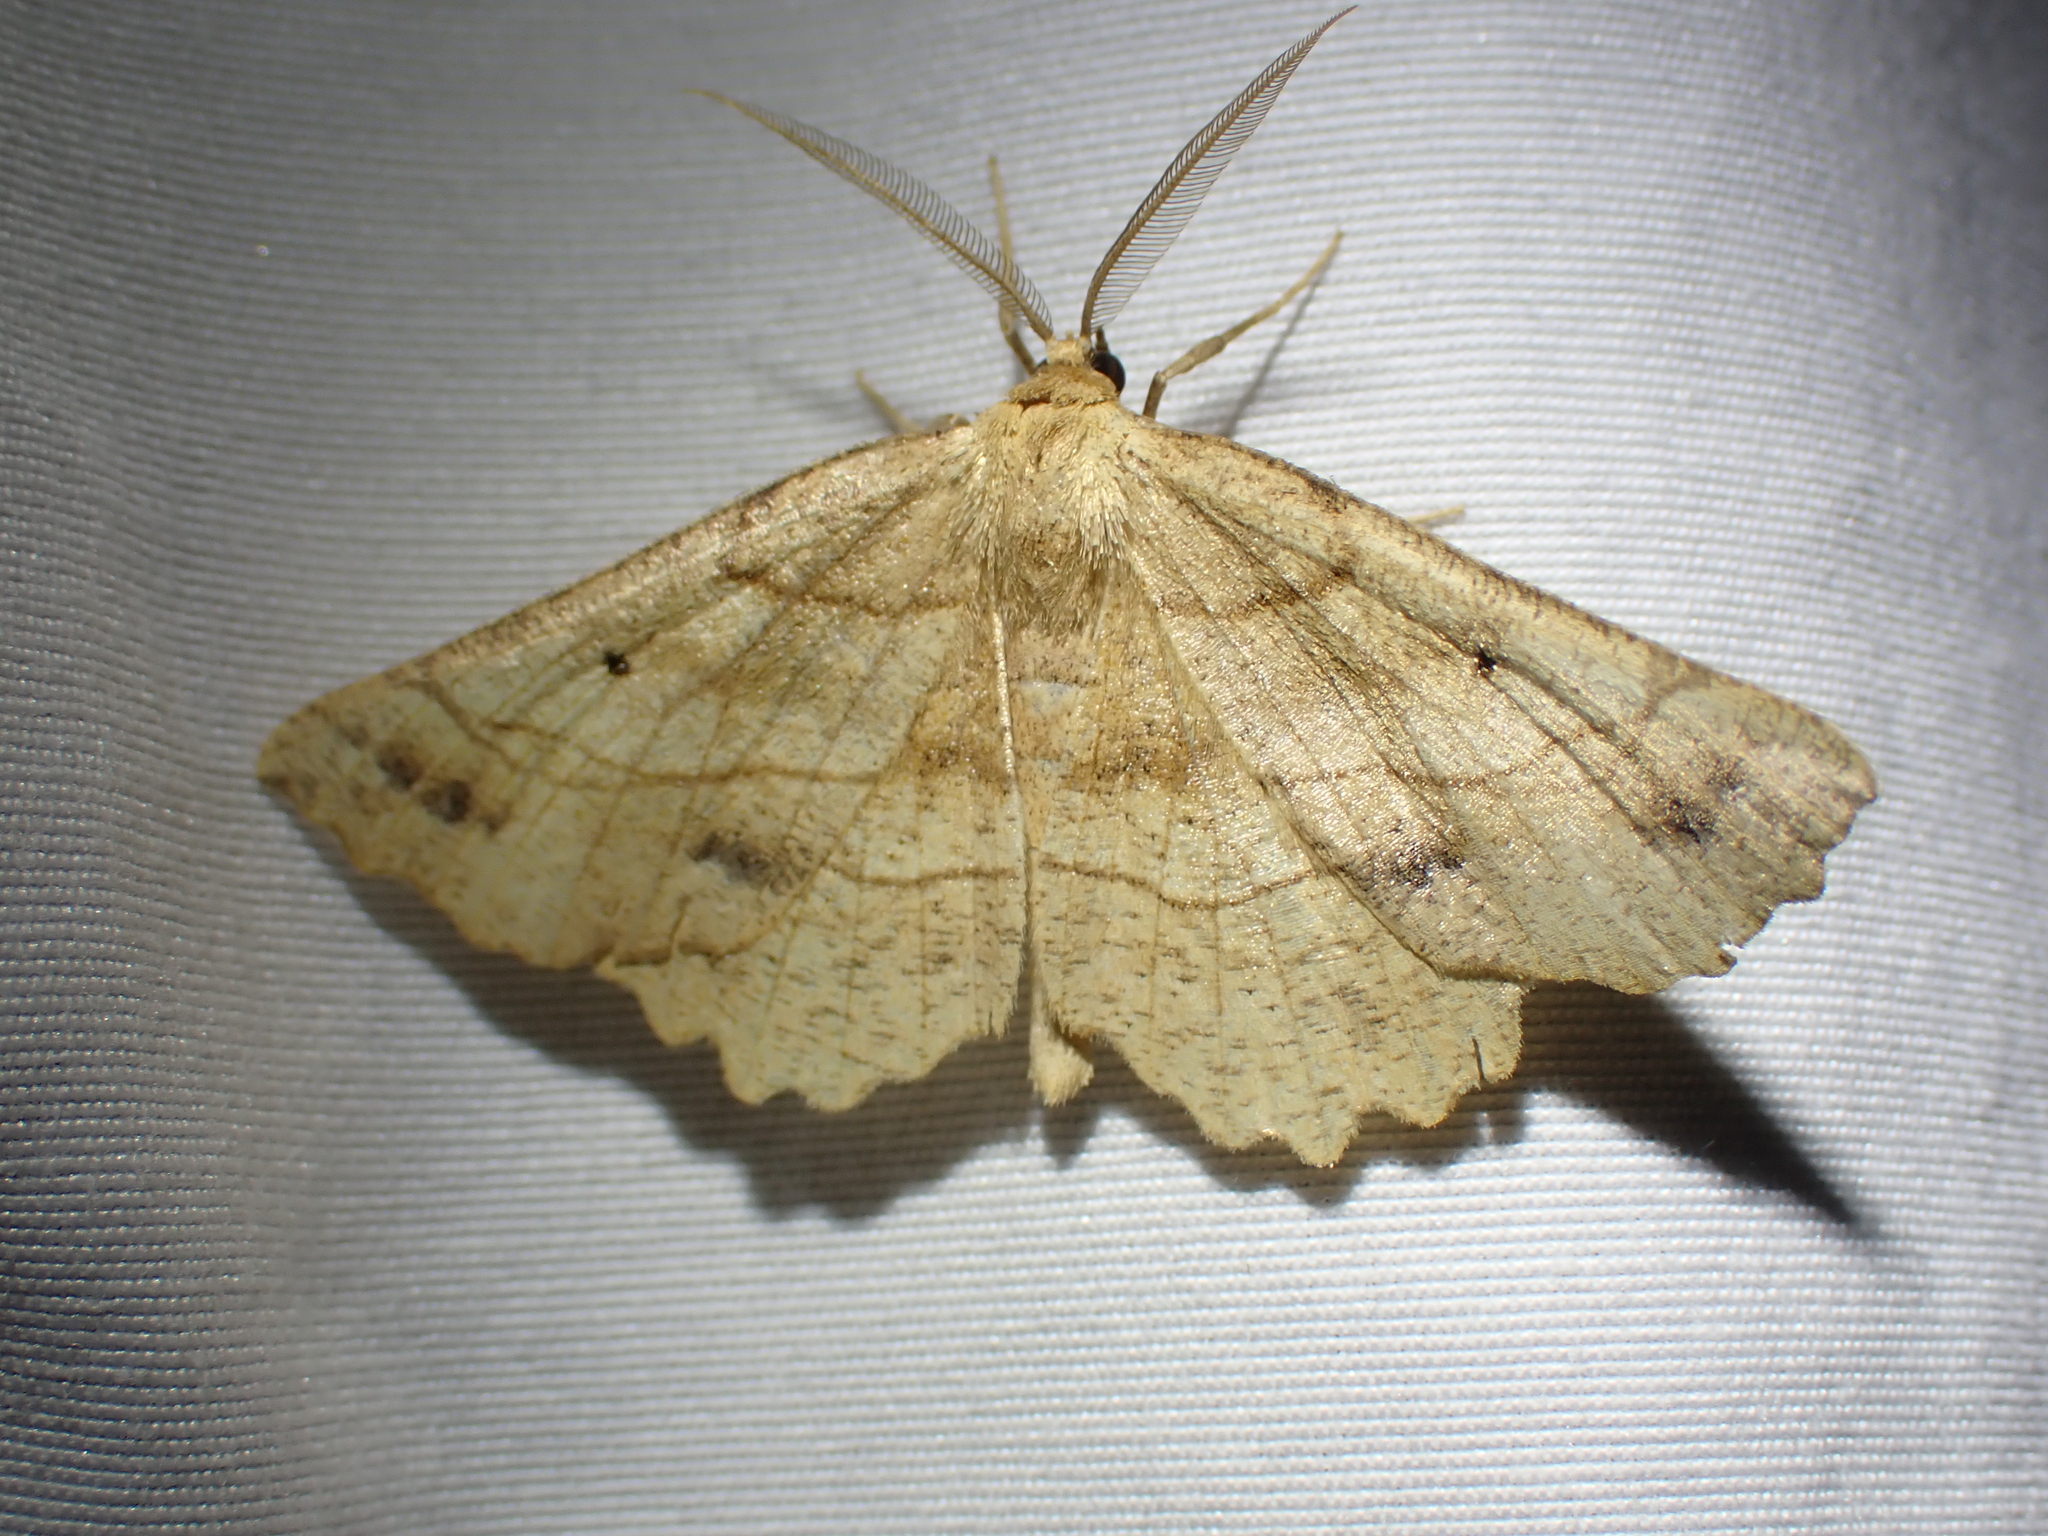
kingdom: Animalia
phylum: Arthropoda
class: Insecta
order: Lepidoptera
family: Geometridae
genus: Euchlaena
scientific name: Euchlaena johnsonaria
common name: Johnson's euchlaena
